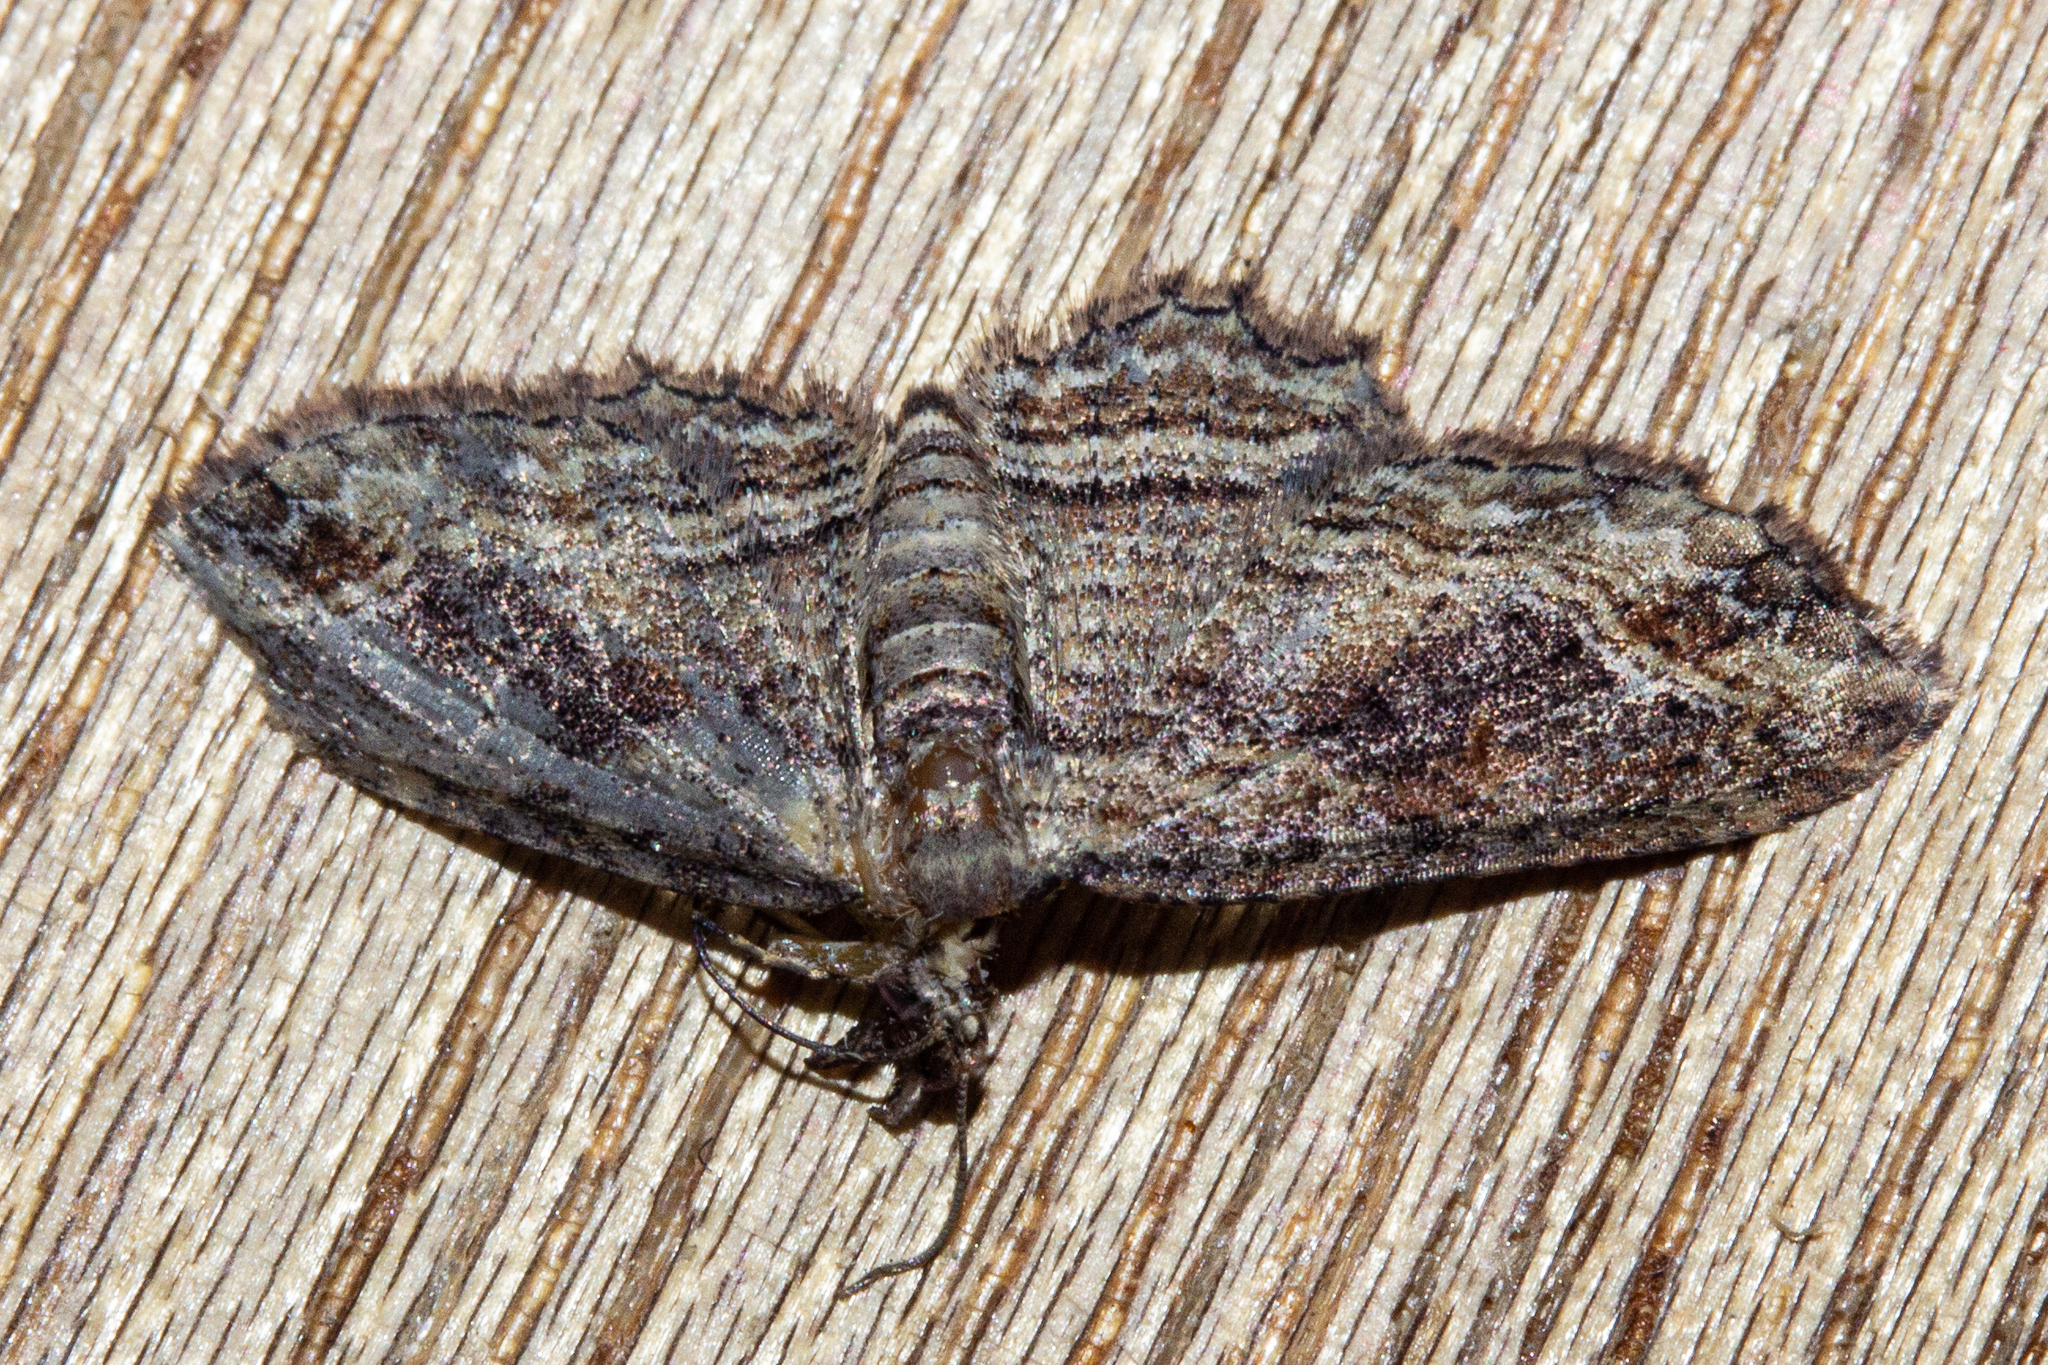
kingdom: Animalia
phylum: Arthropoda
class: Insecta
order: Lepidoptera
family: Geometridae
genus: Chloroclystis
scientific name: Chloroclystis filata
